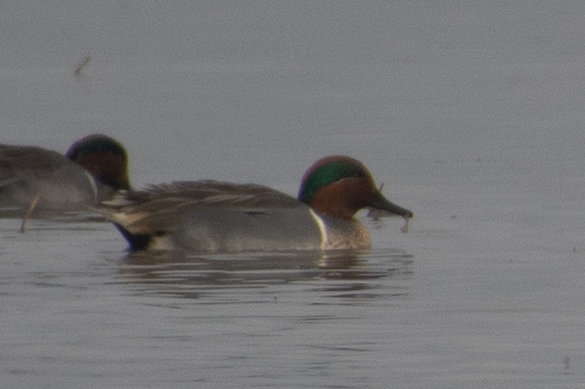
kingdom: Animalia
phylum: Chordata
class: Aves
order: Anseriformes
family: Anatidae
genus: Anas
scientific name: Anas crecca
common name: Eurasian teal
